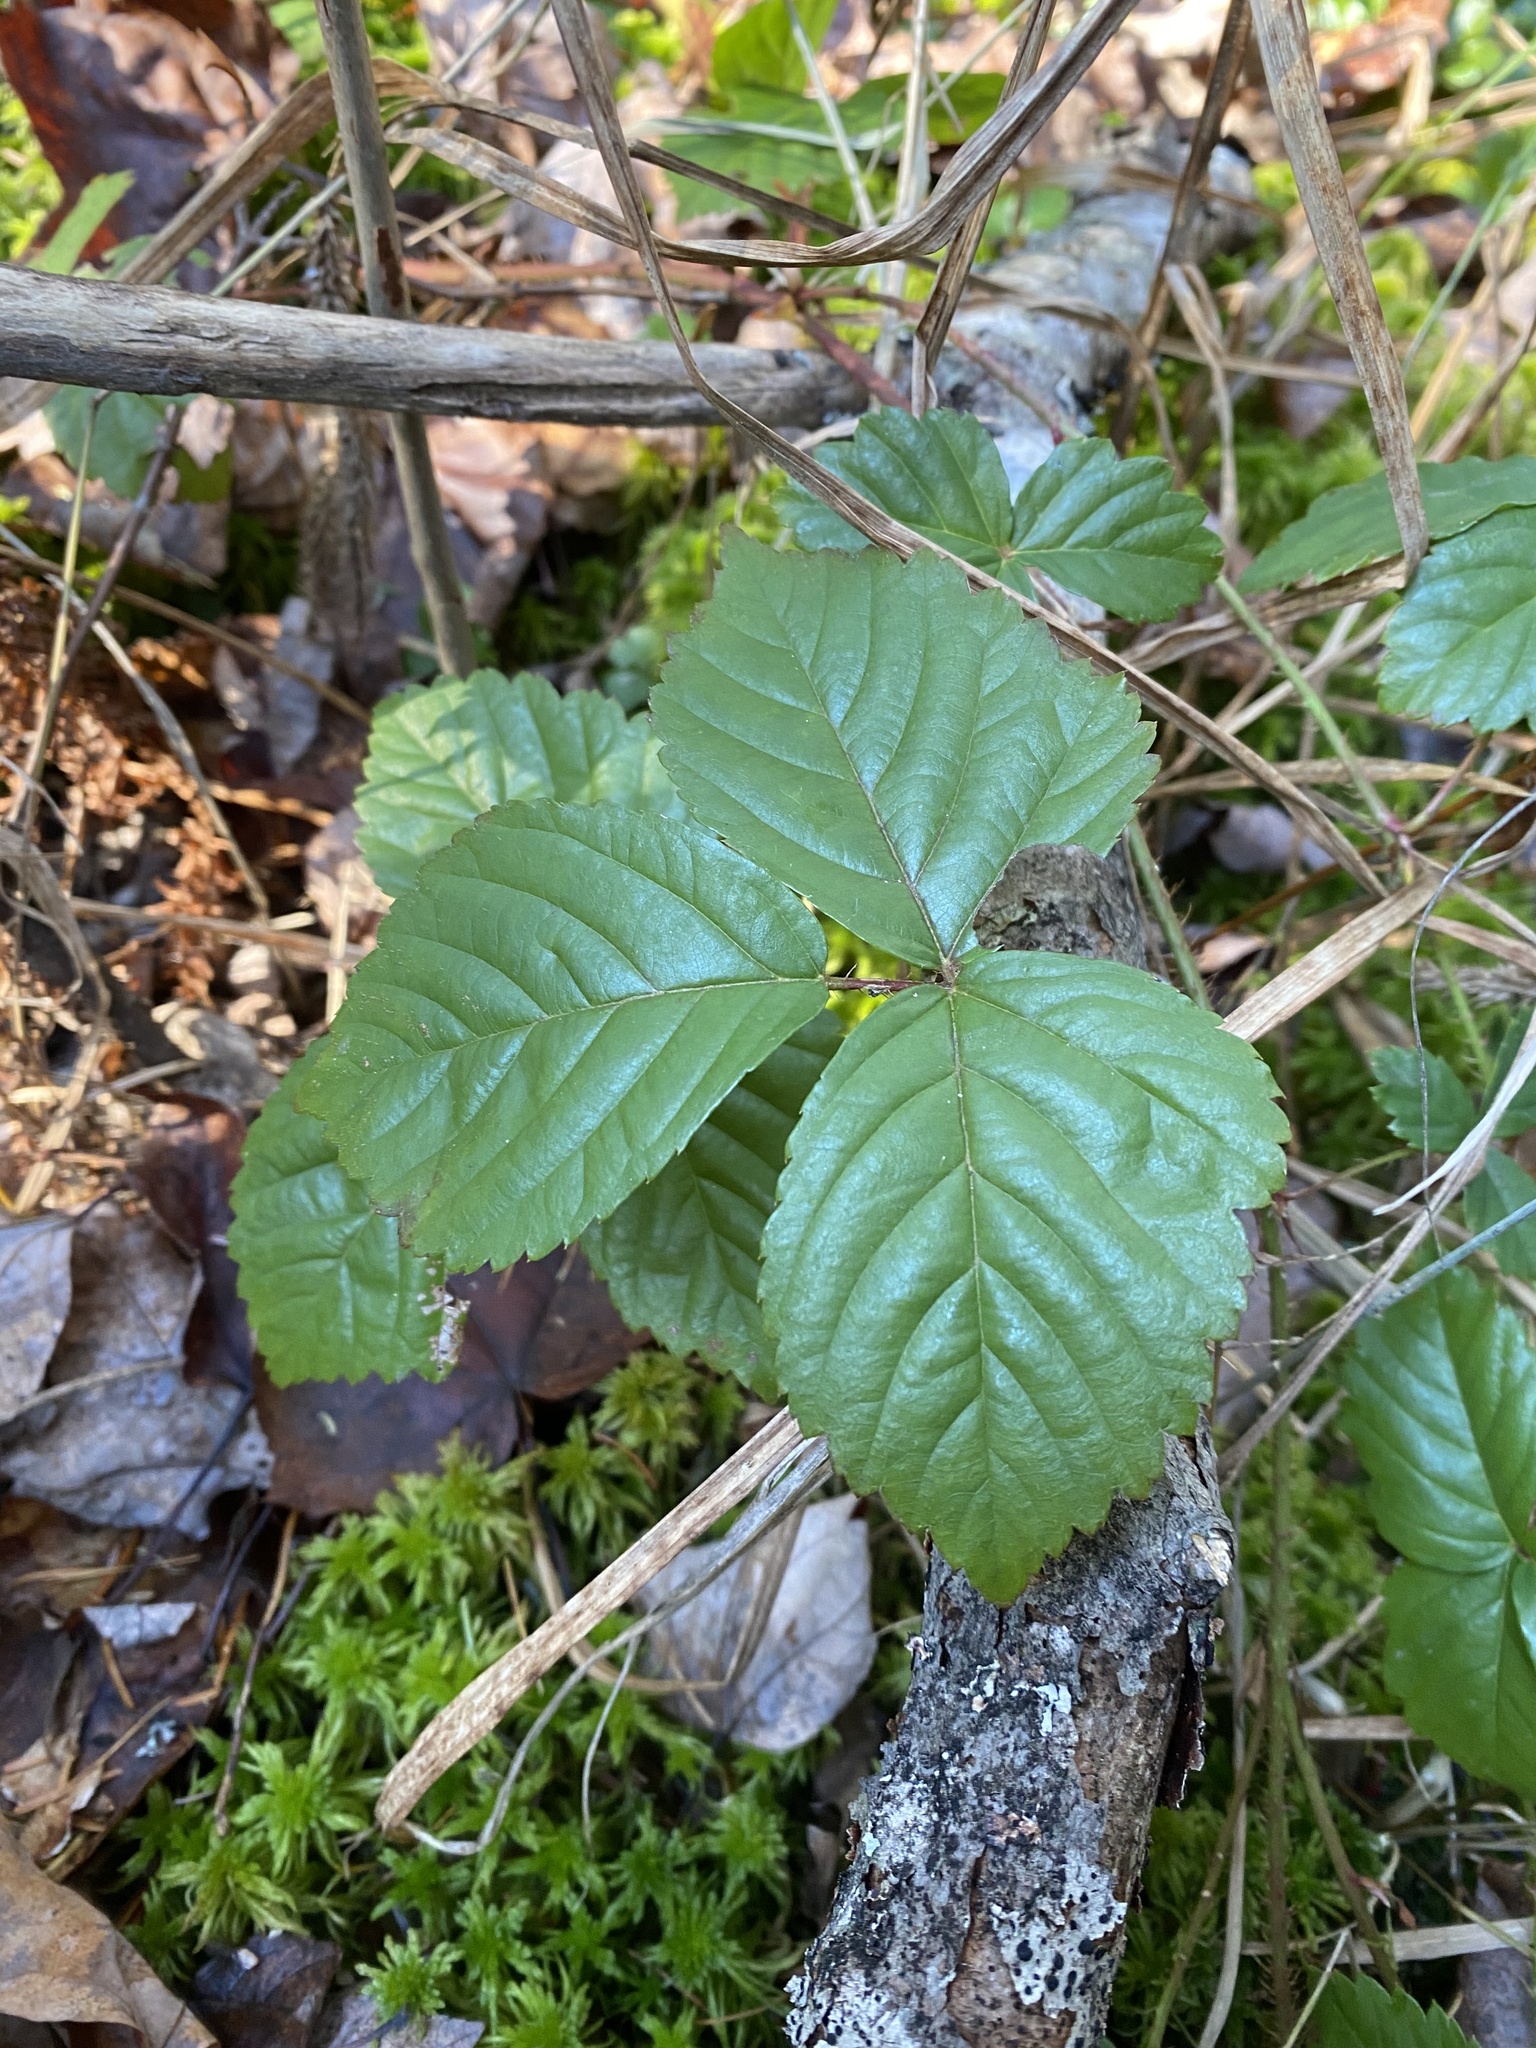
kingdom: Plantae
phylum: Tracheophyta
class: Magnoliopsida
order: Rosales
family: Rosaceae
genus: Rubus
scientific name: Rubus hispidus
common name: Running blackberry
